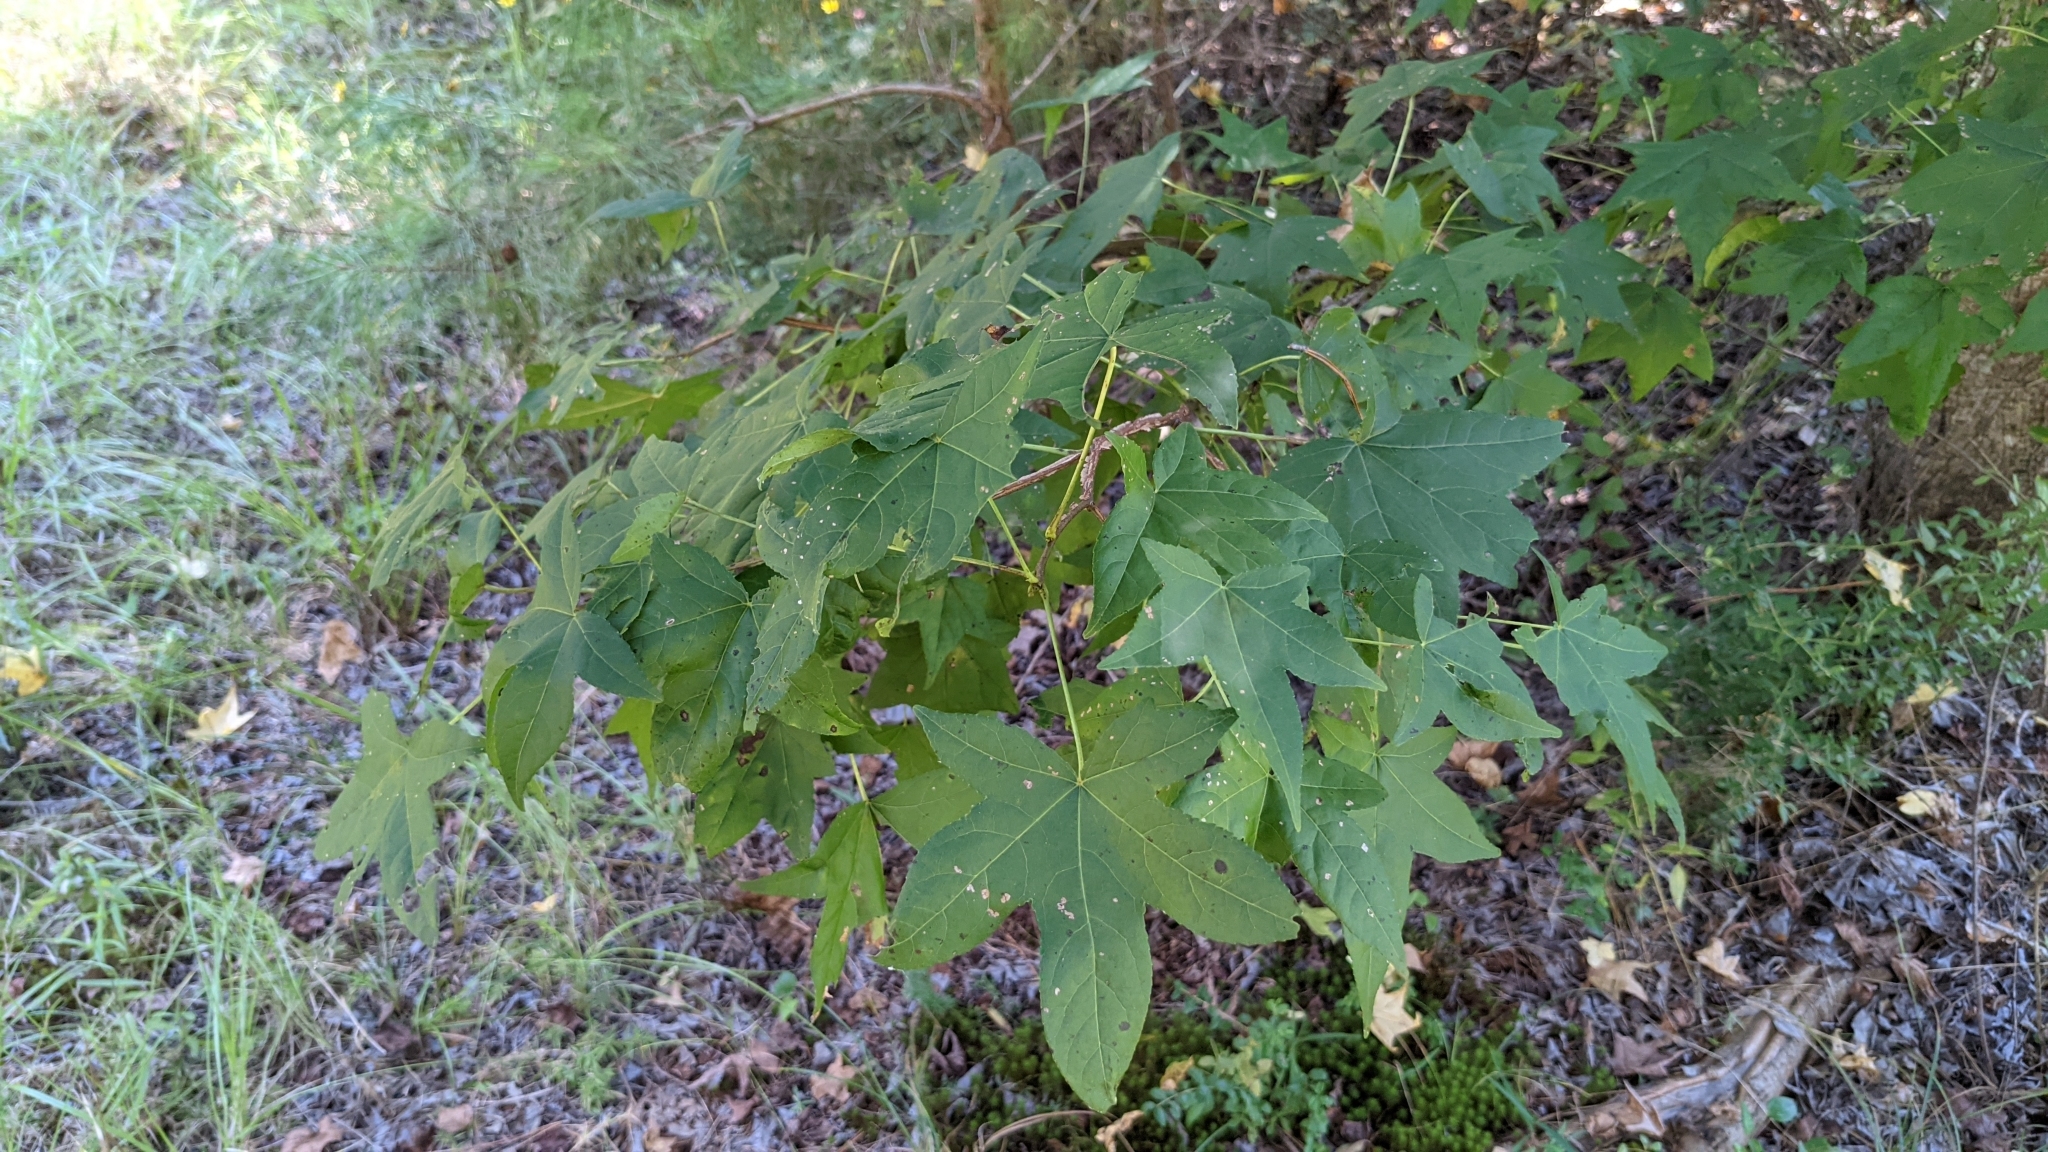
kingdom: Plantae
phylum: Tracheophyta
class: Magnoliopsida
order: Saxifragales
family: Altingiaceae
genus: Liquidambar
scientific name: Liquidambar styraciflua
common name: Sweet gum
